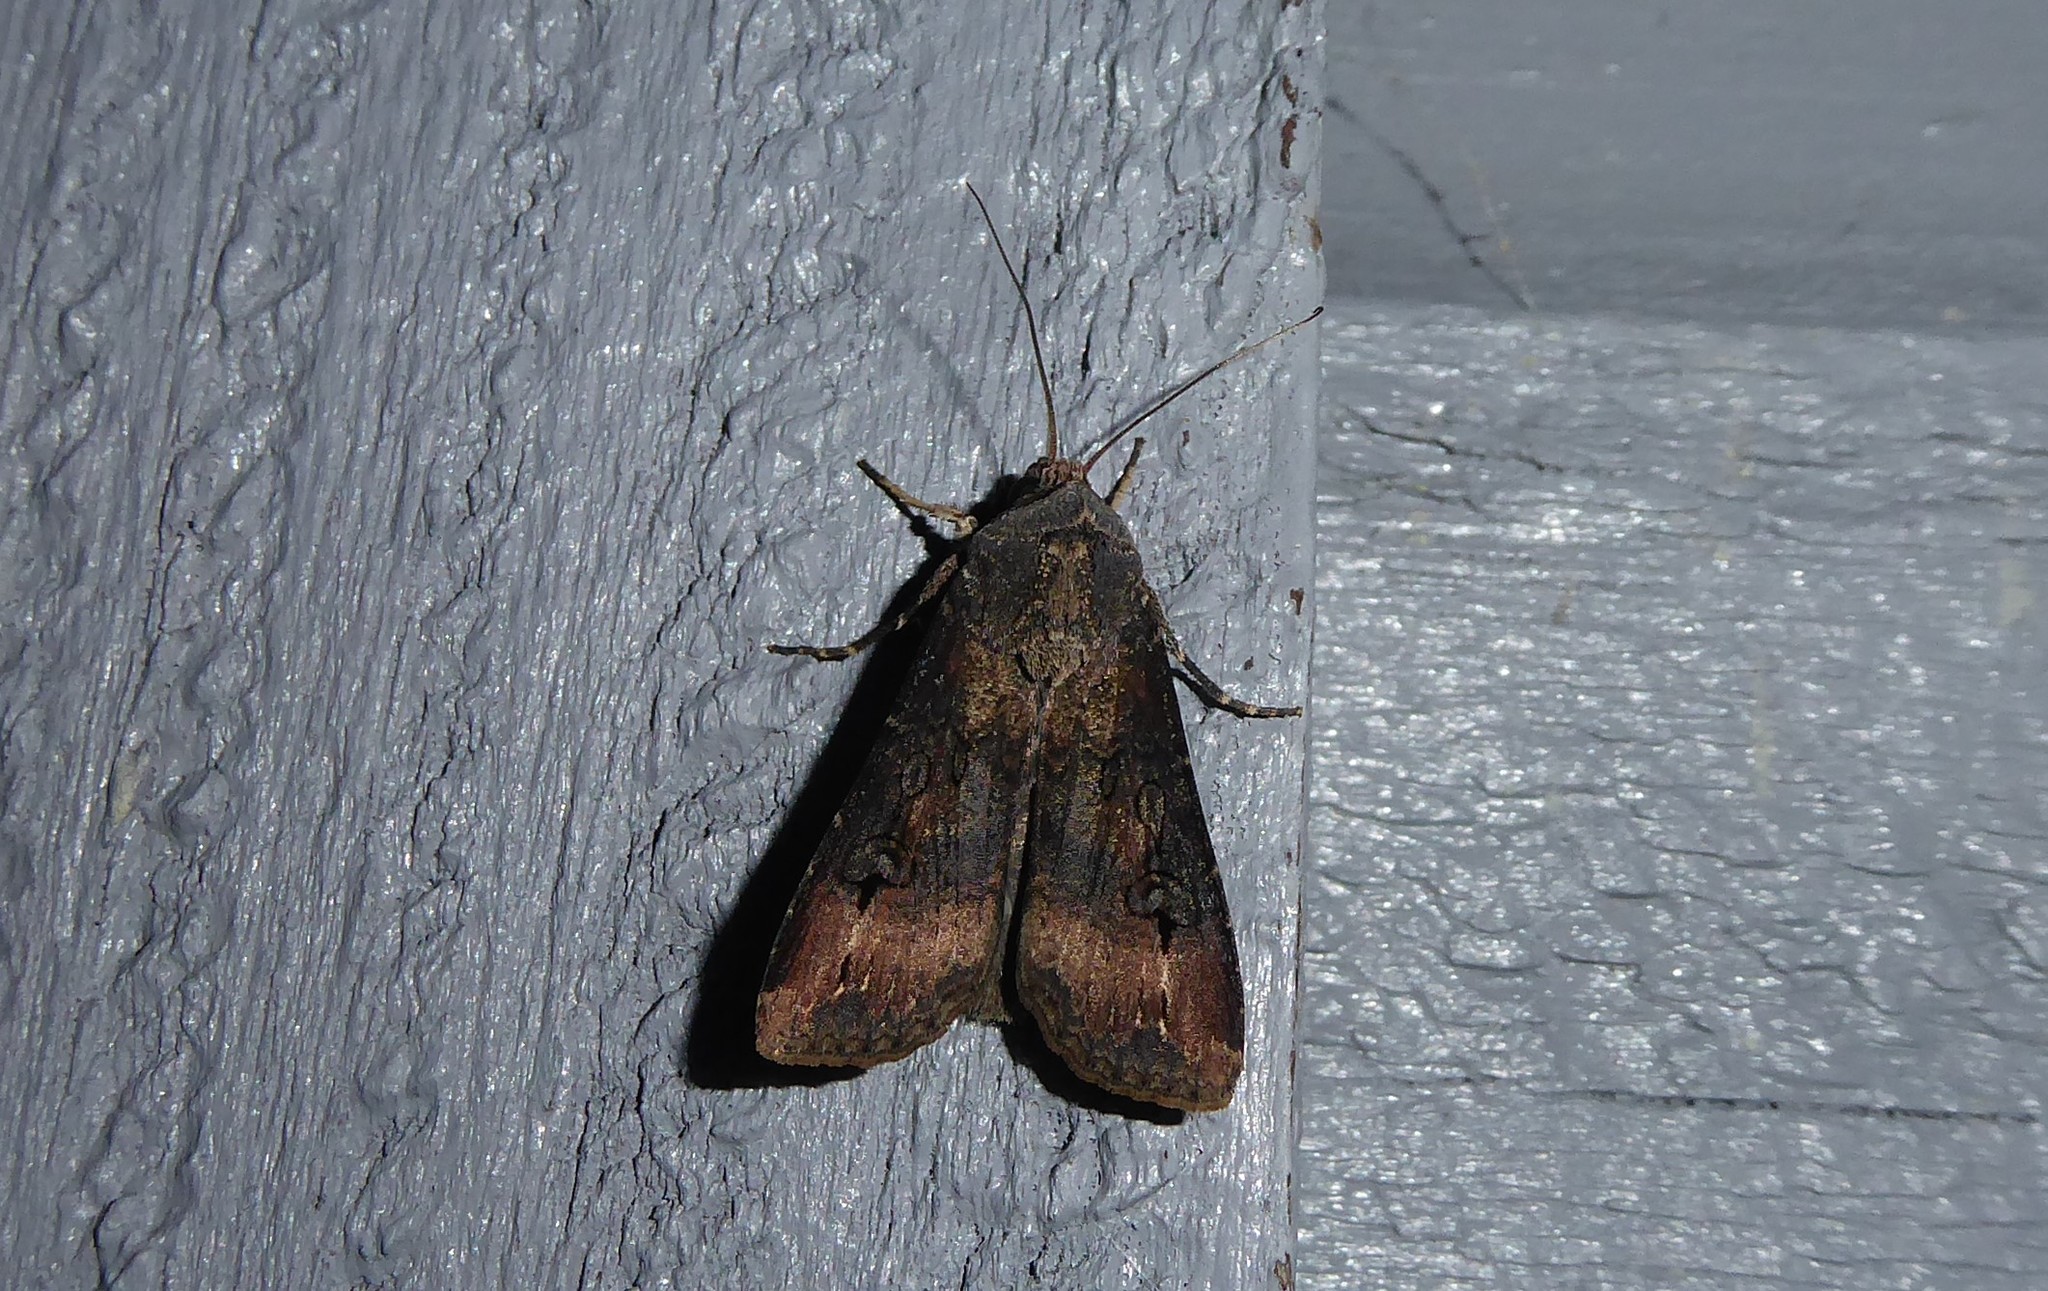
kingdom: Animalia
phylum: Arthropoda
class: Insecta
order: Lepidoptera
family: Noctuidae
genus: Agrotis
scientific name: Agrotis ipsilon
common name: Dark sword-grass
